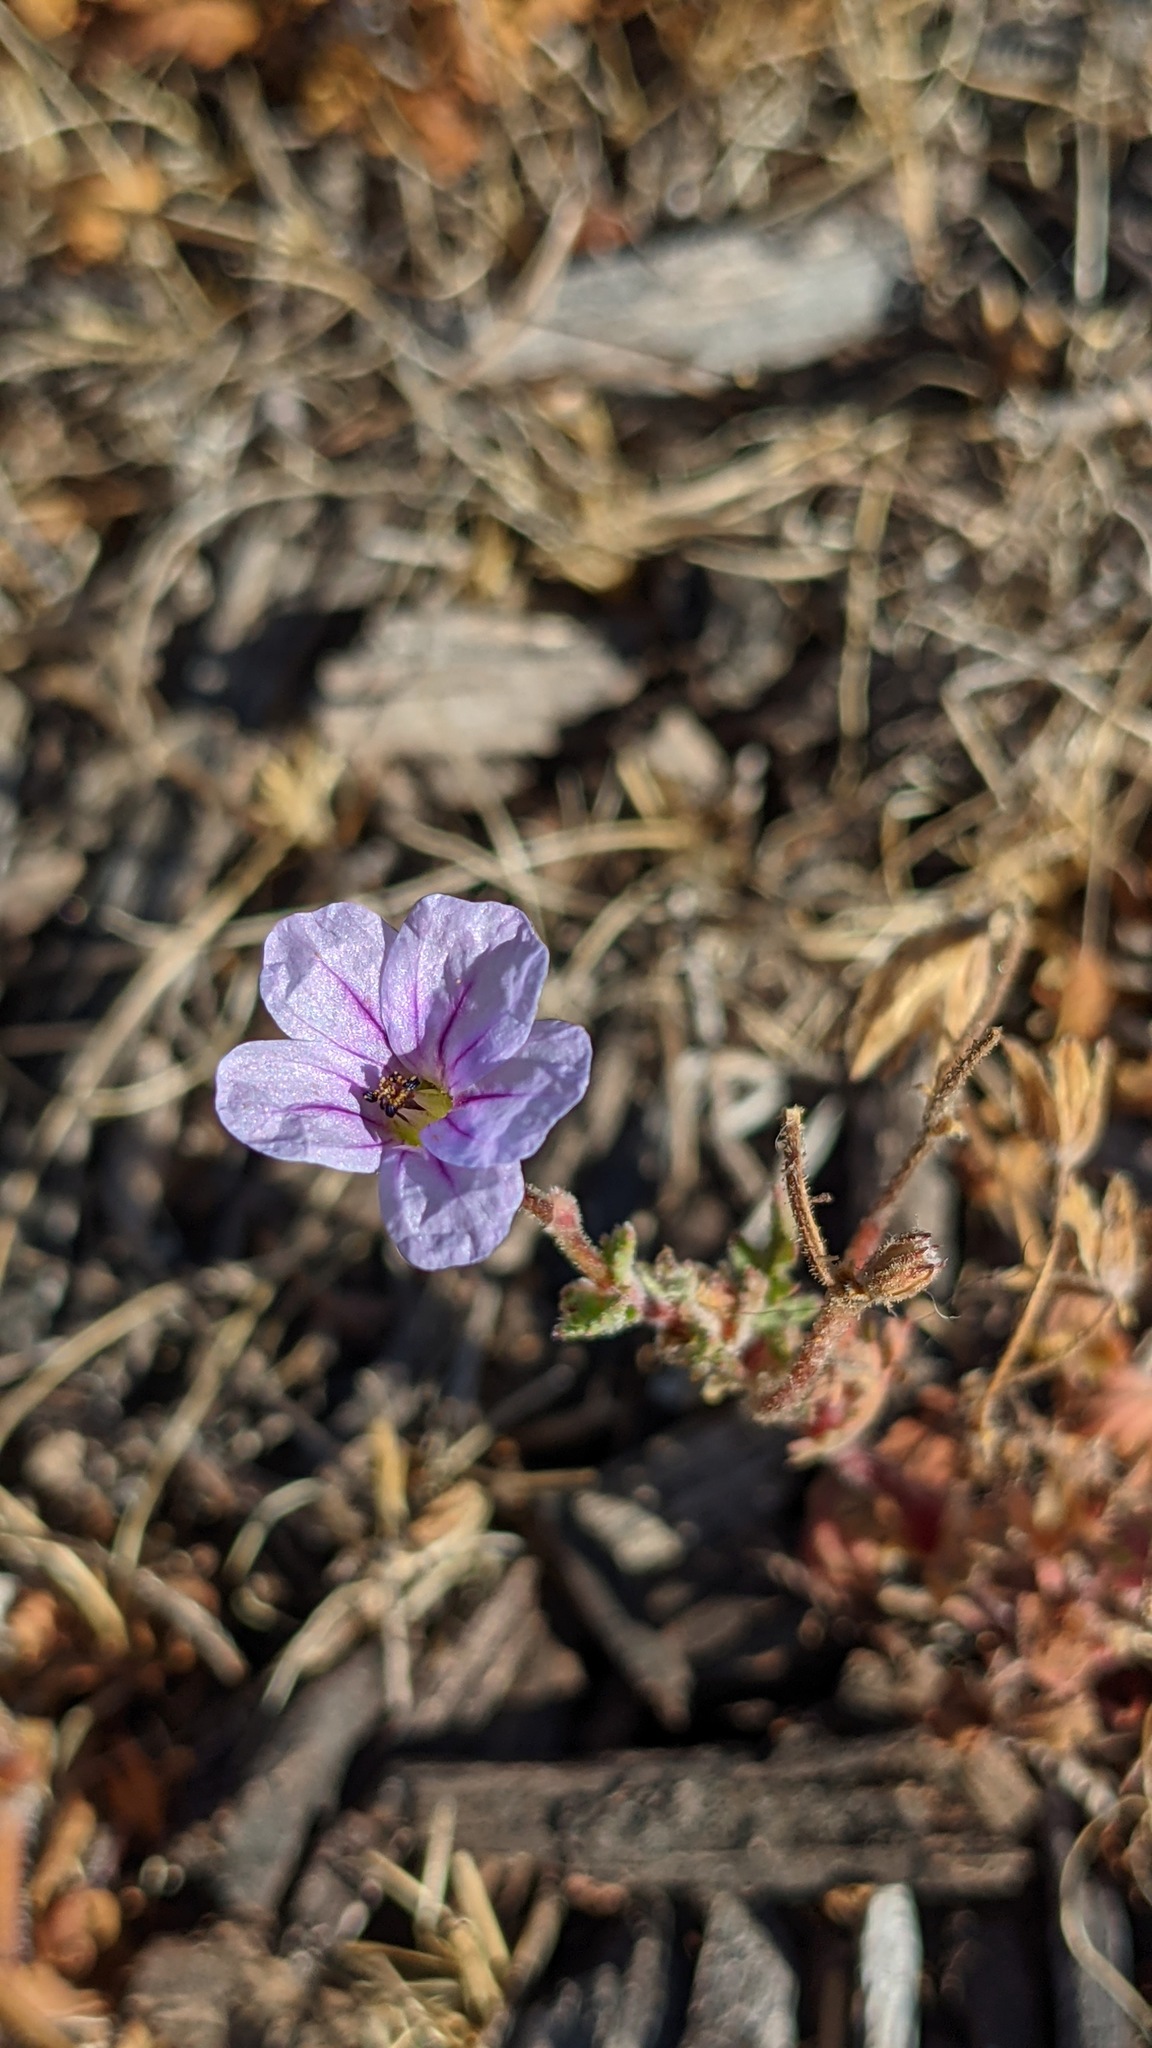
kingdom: Plantae
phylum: Tracheophyta
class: Magnoliopsida
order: Geraniales
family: Geraniaceae
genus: Erodium
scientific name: Erodium botrys
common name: Mediterranean stork's-bill
